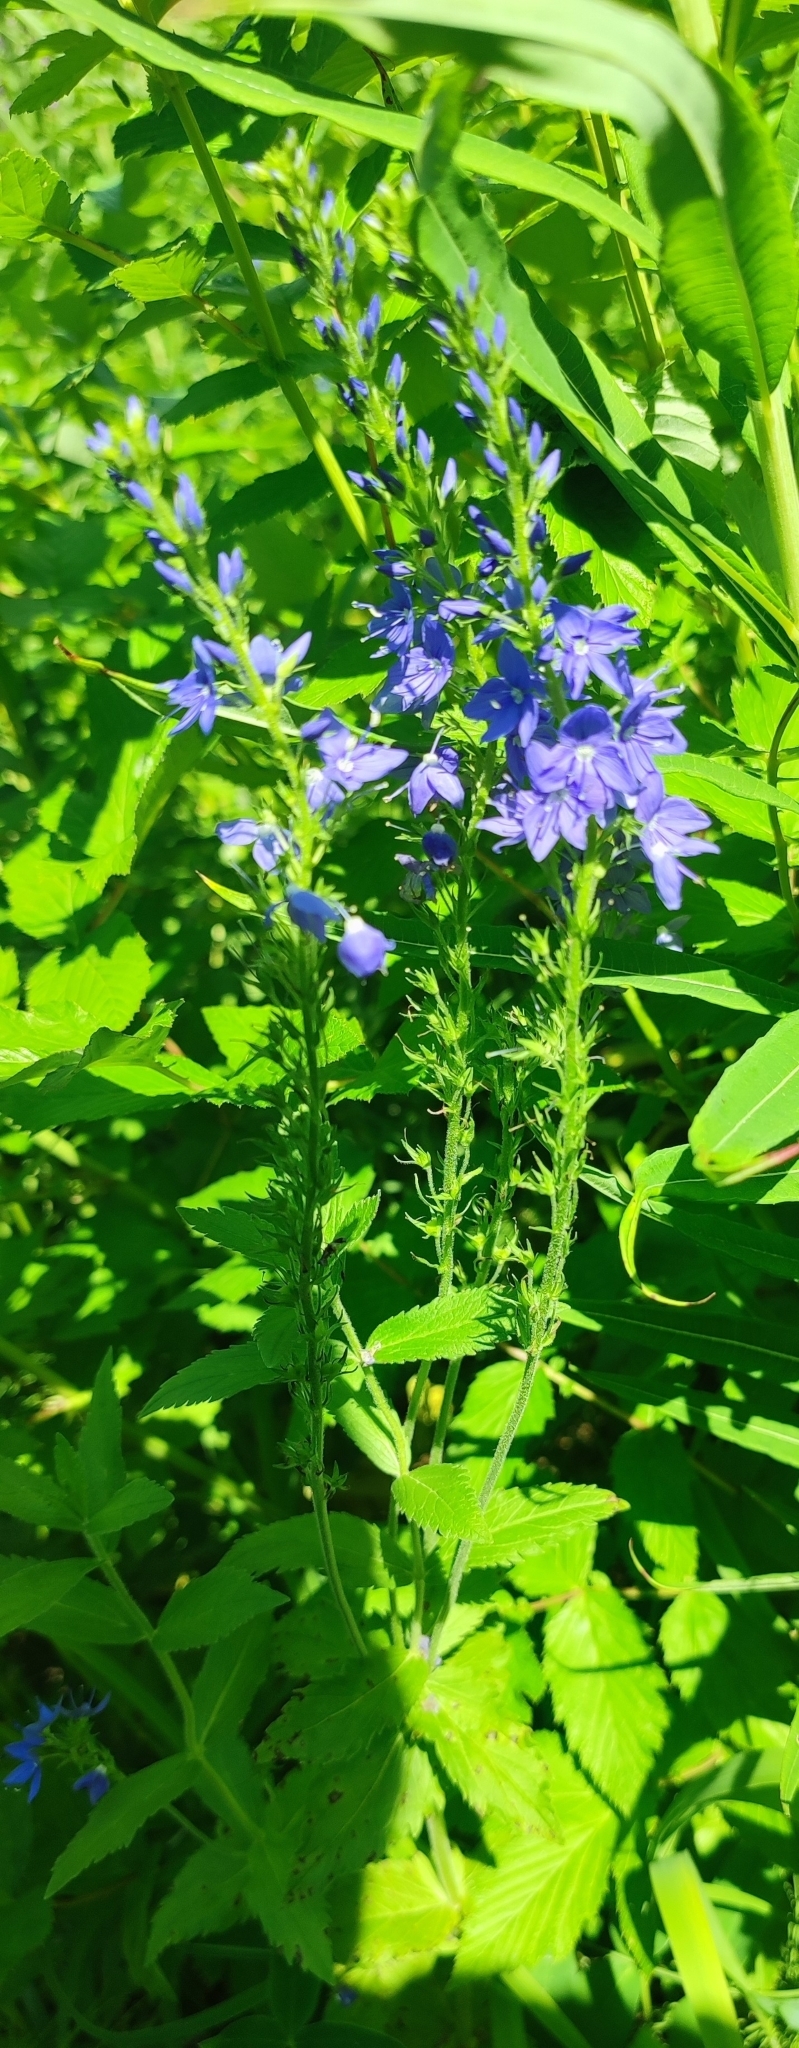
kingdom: Plantae
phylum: Tracheophyta
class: Magnoliopsida
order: Lamiales
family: Plantaginaceae
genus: Veronica
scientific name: Veronica teucrium
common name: Large speedwell
